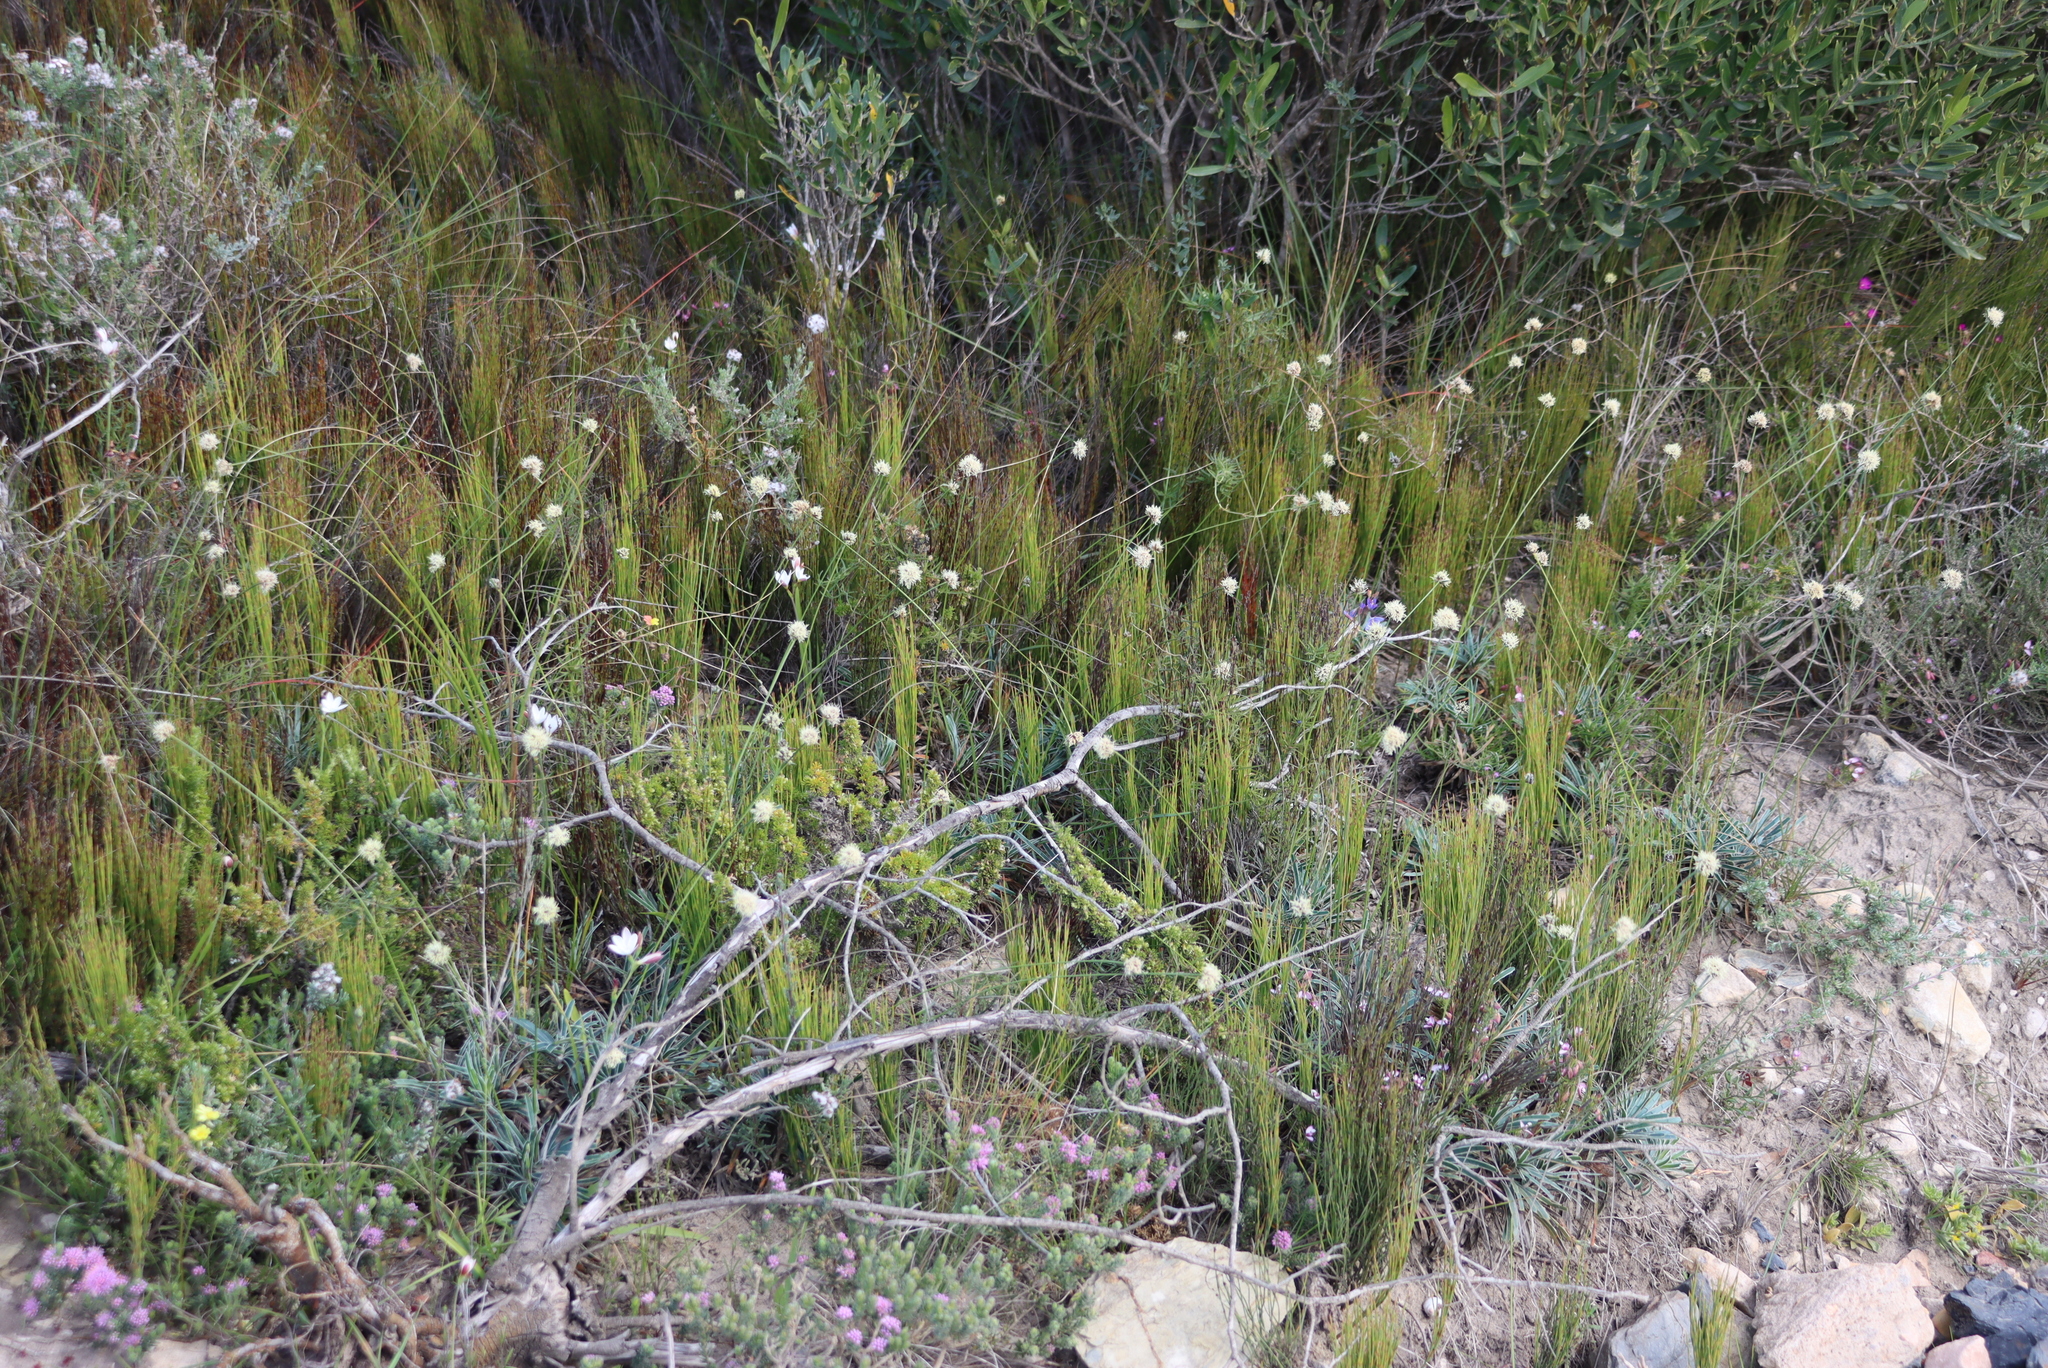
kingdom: Plantae
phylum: Tracheophyta
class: Liliopsida
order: Poales
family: Cyperaceae
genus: Ficinia
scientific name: Ficinia truncata
